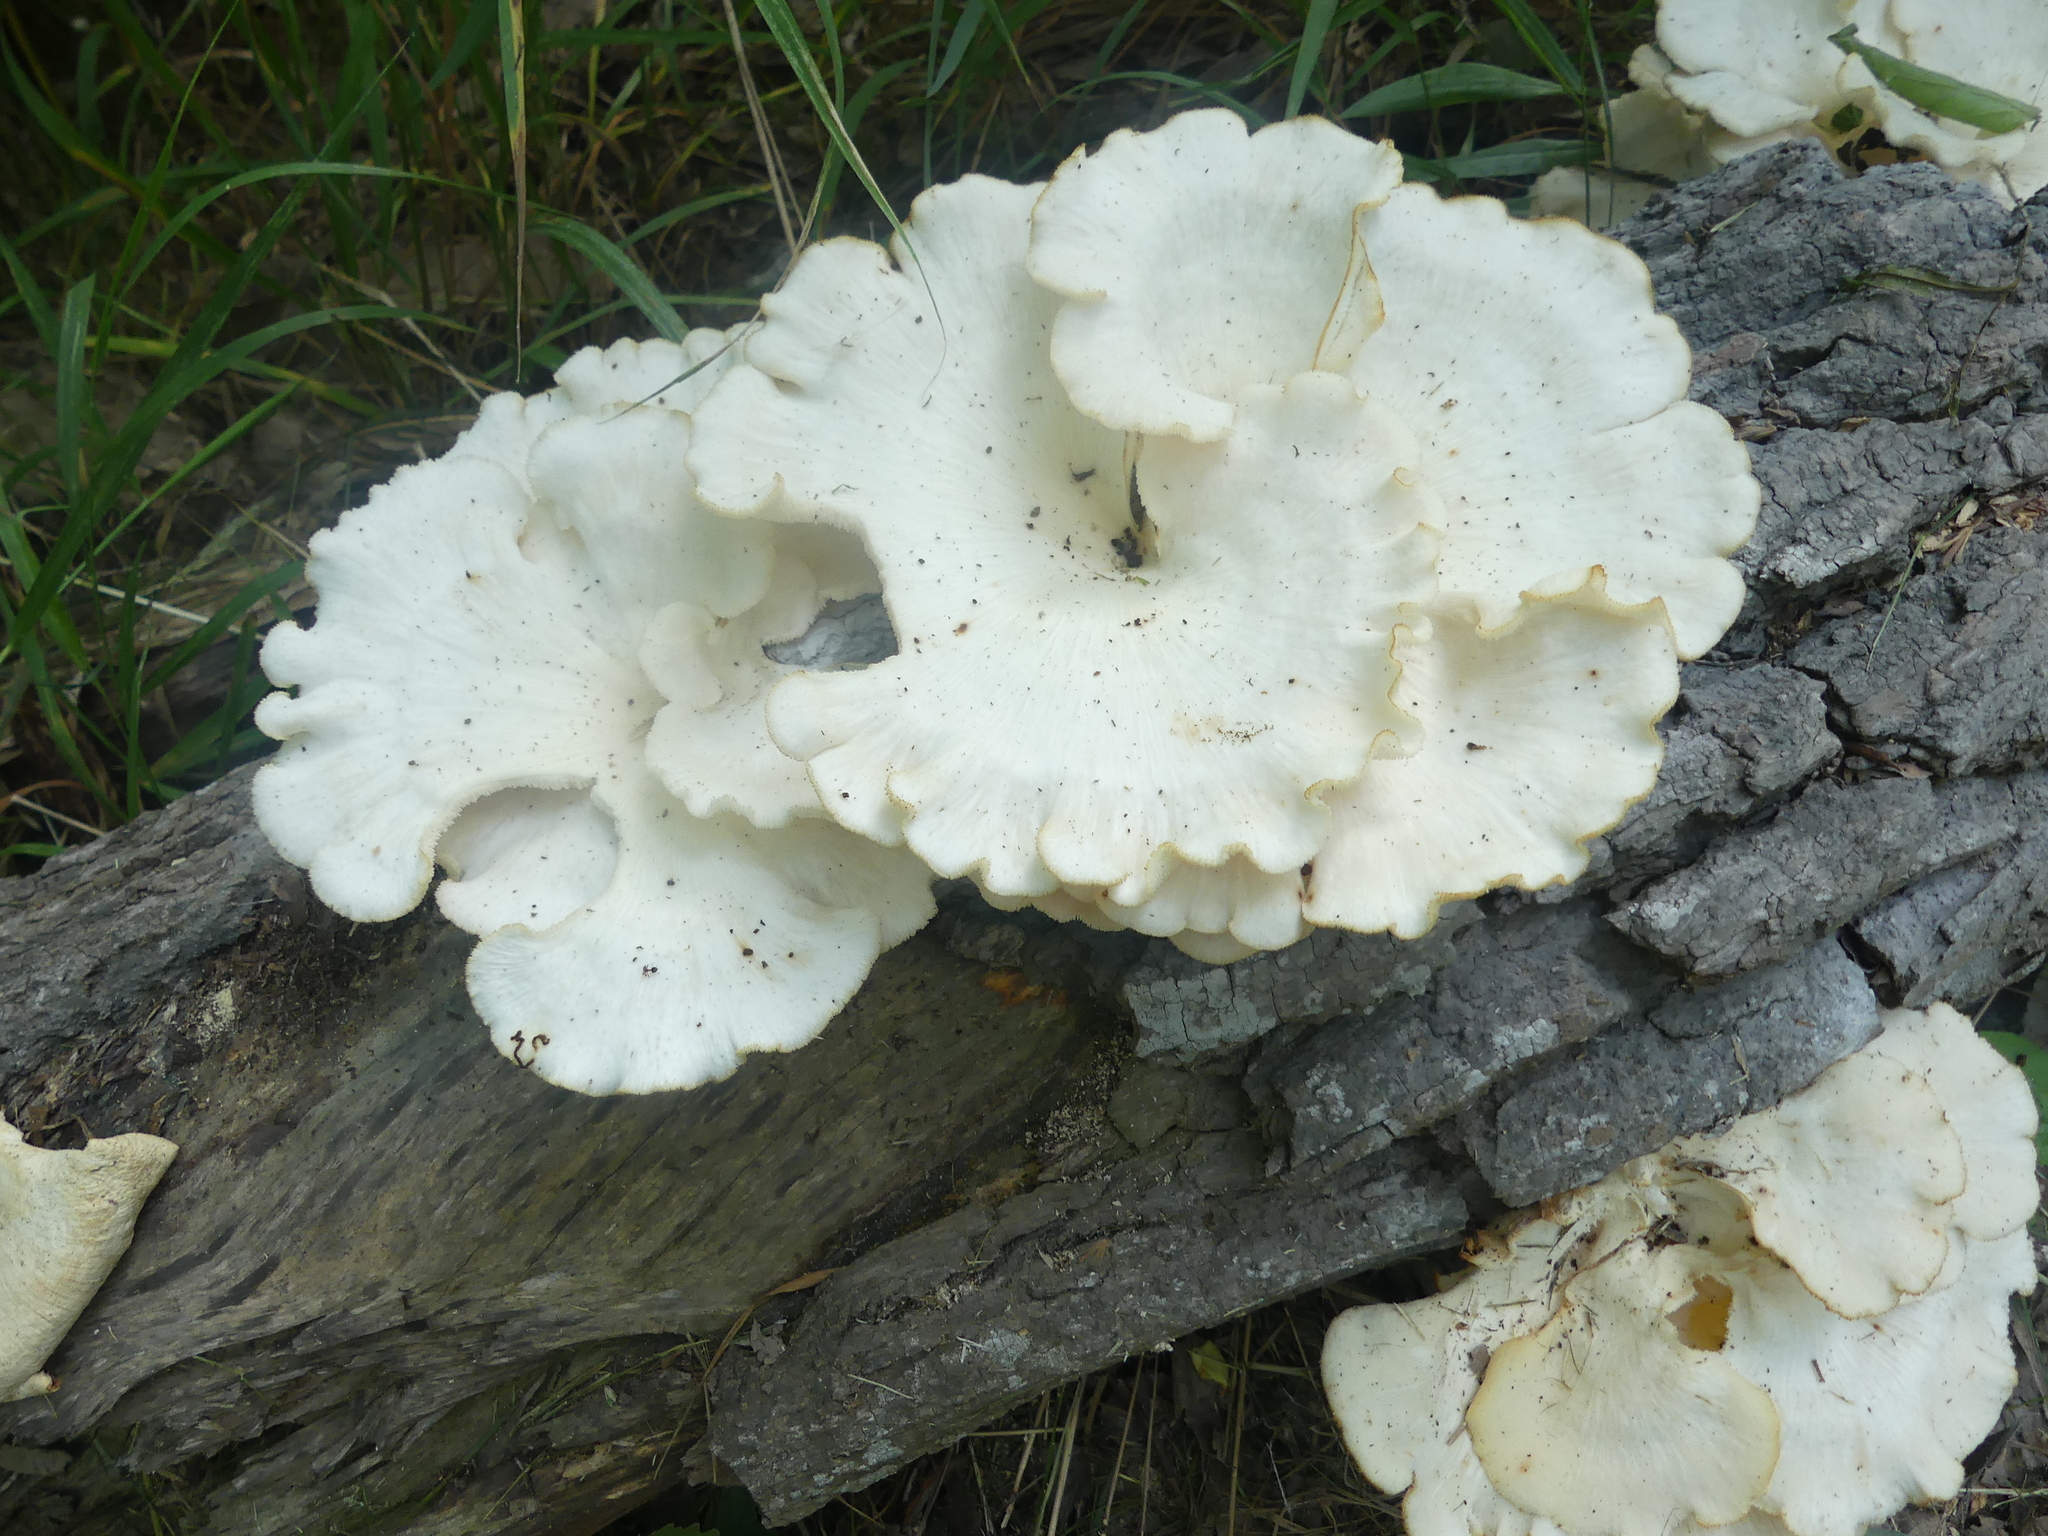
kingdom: Fungi
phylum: Basidiomycota
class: Agaricomycetes
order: Polyporales
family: Polyporaceae
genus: Favolus
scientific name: Favolus tenuiculus
